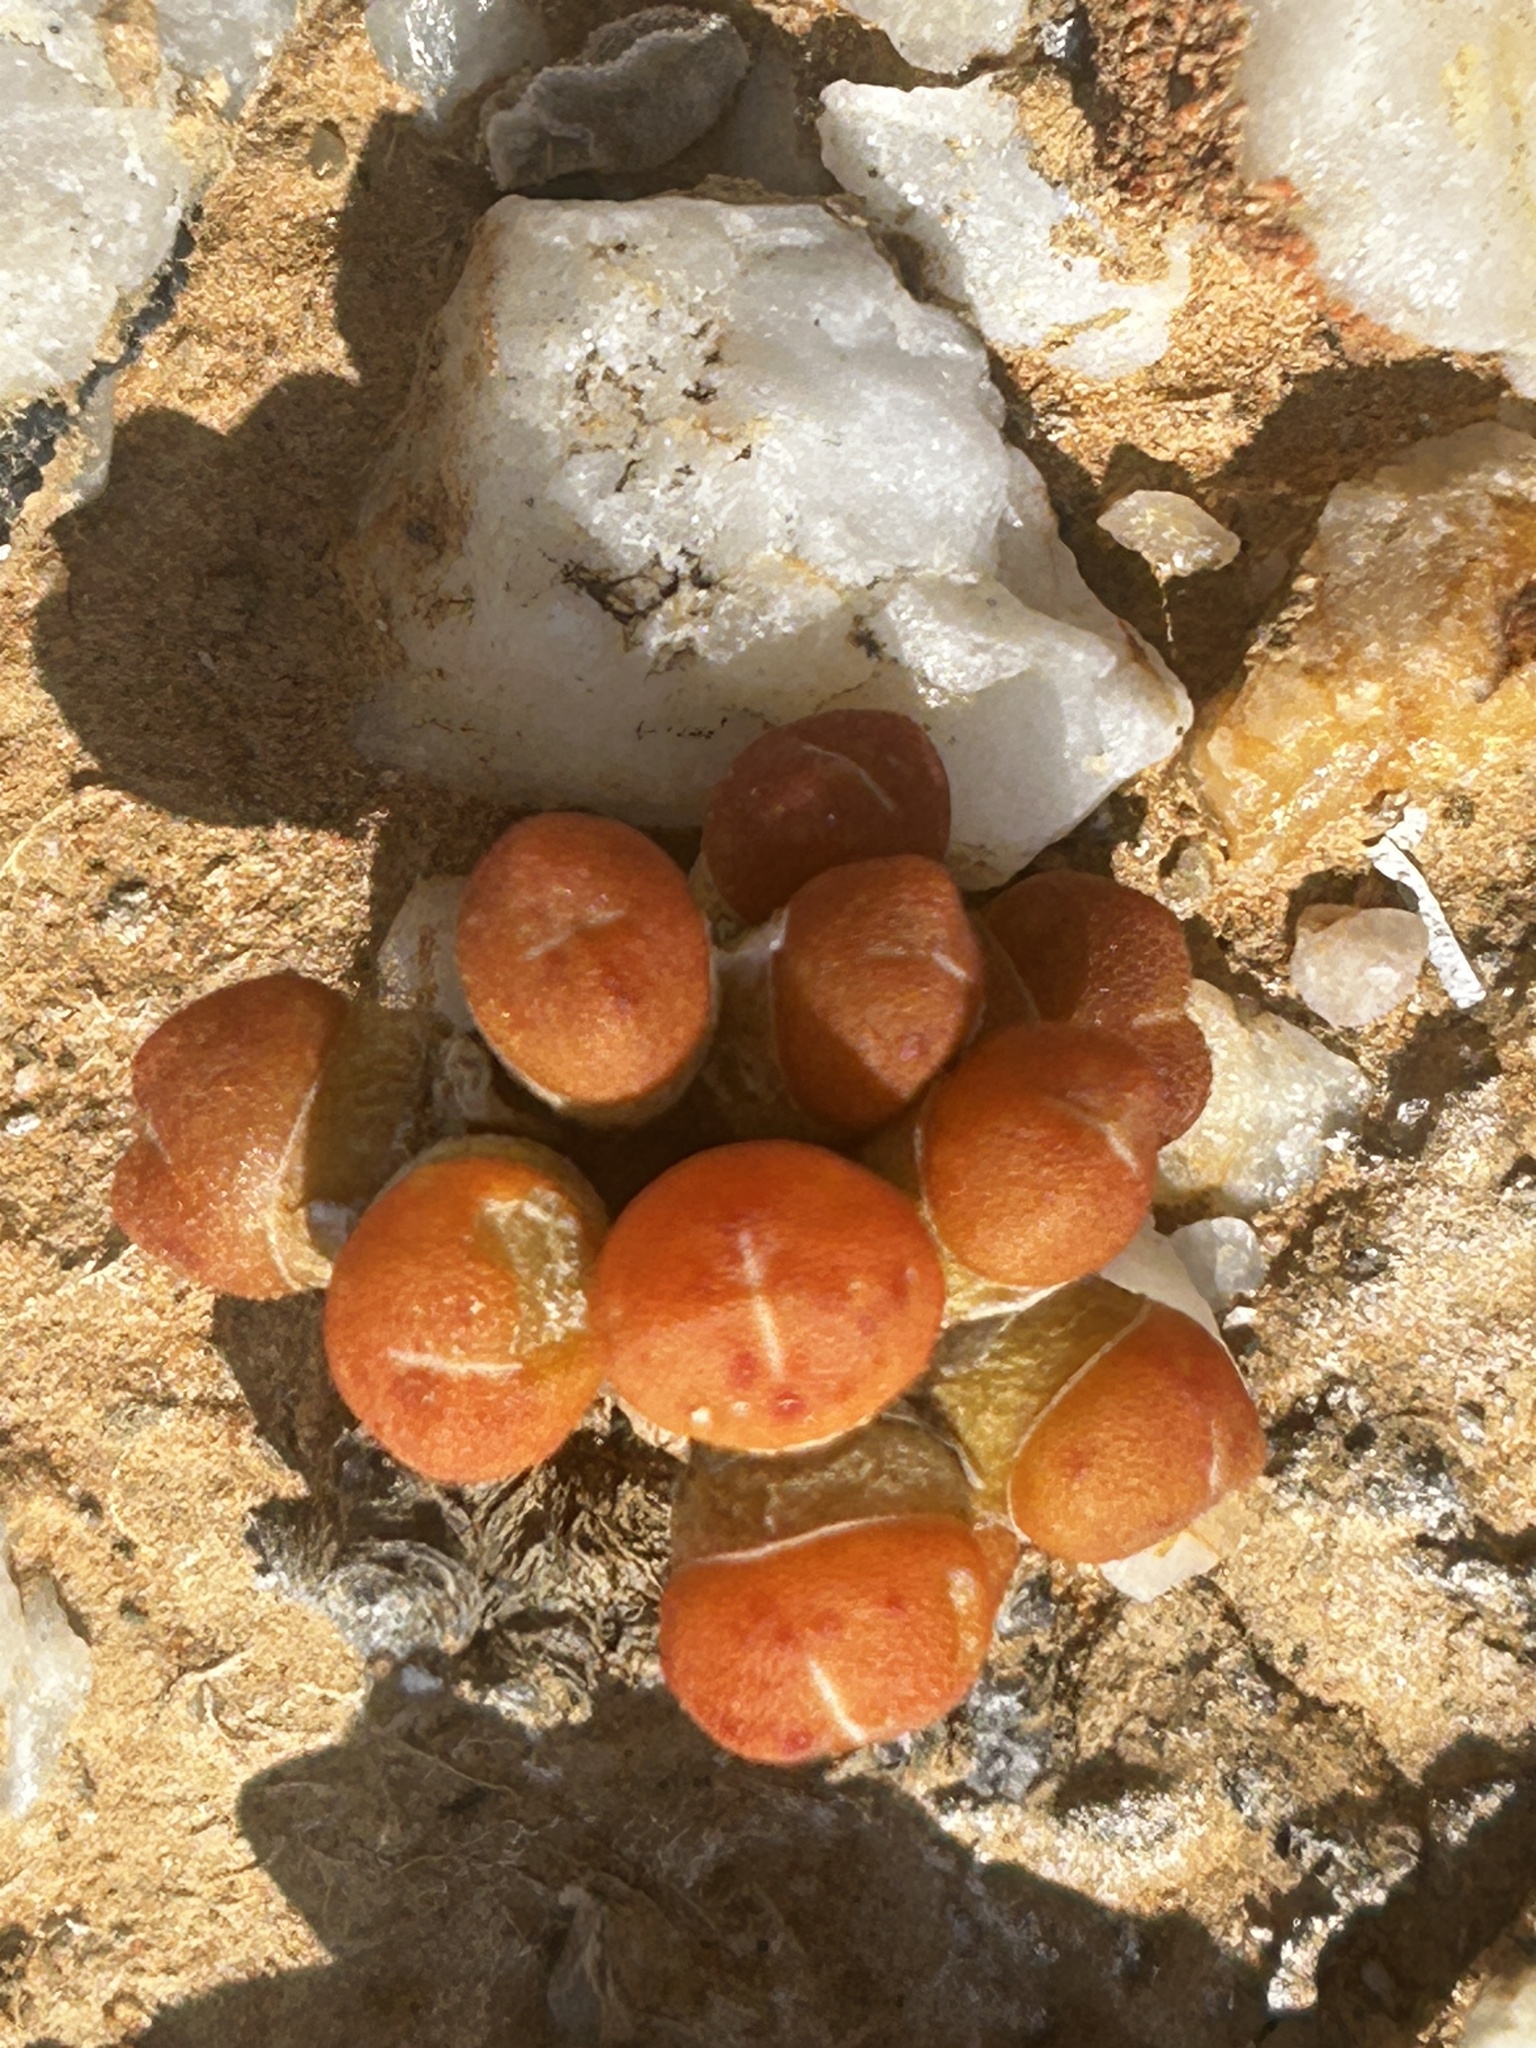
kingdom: Plantae
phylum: Tracheophyta
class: Magnoliopsida
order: Caryophyllales
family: Aizoaceae
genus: Oophytum
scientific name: Oophytum nanum
